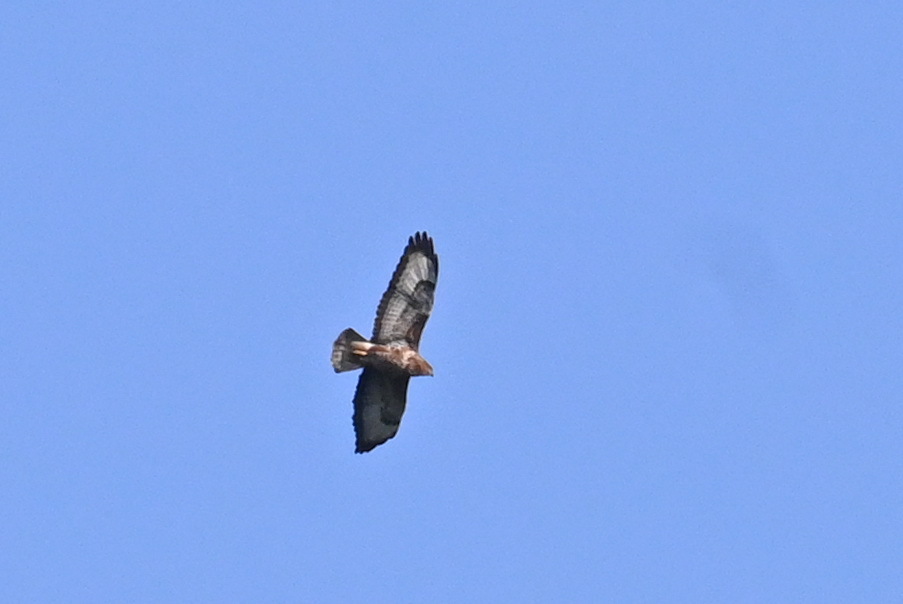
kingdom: Animalia
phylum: Chordata
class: Aves
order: Accipitriformes
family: Accipitridae
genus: Buteo
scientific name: Buteo buteo
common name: Common buzzard
